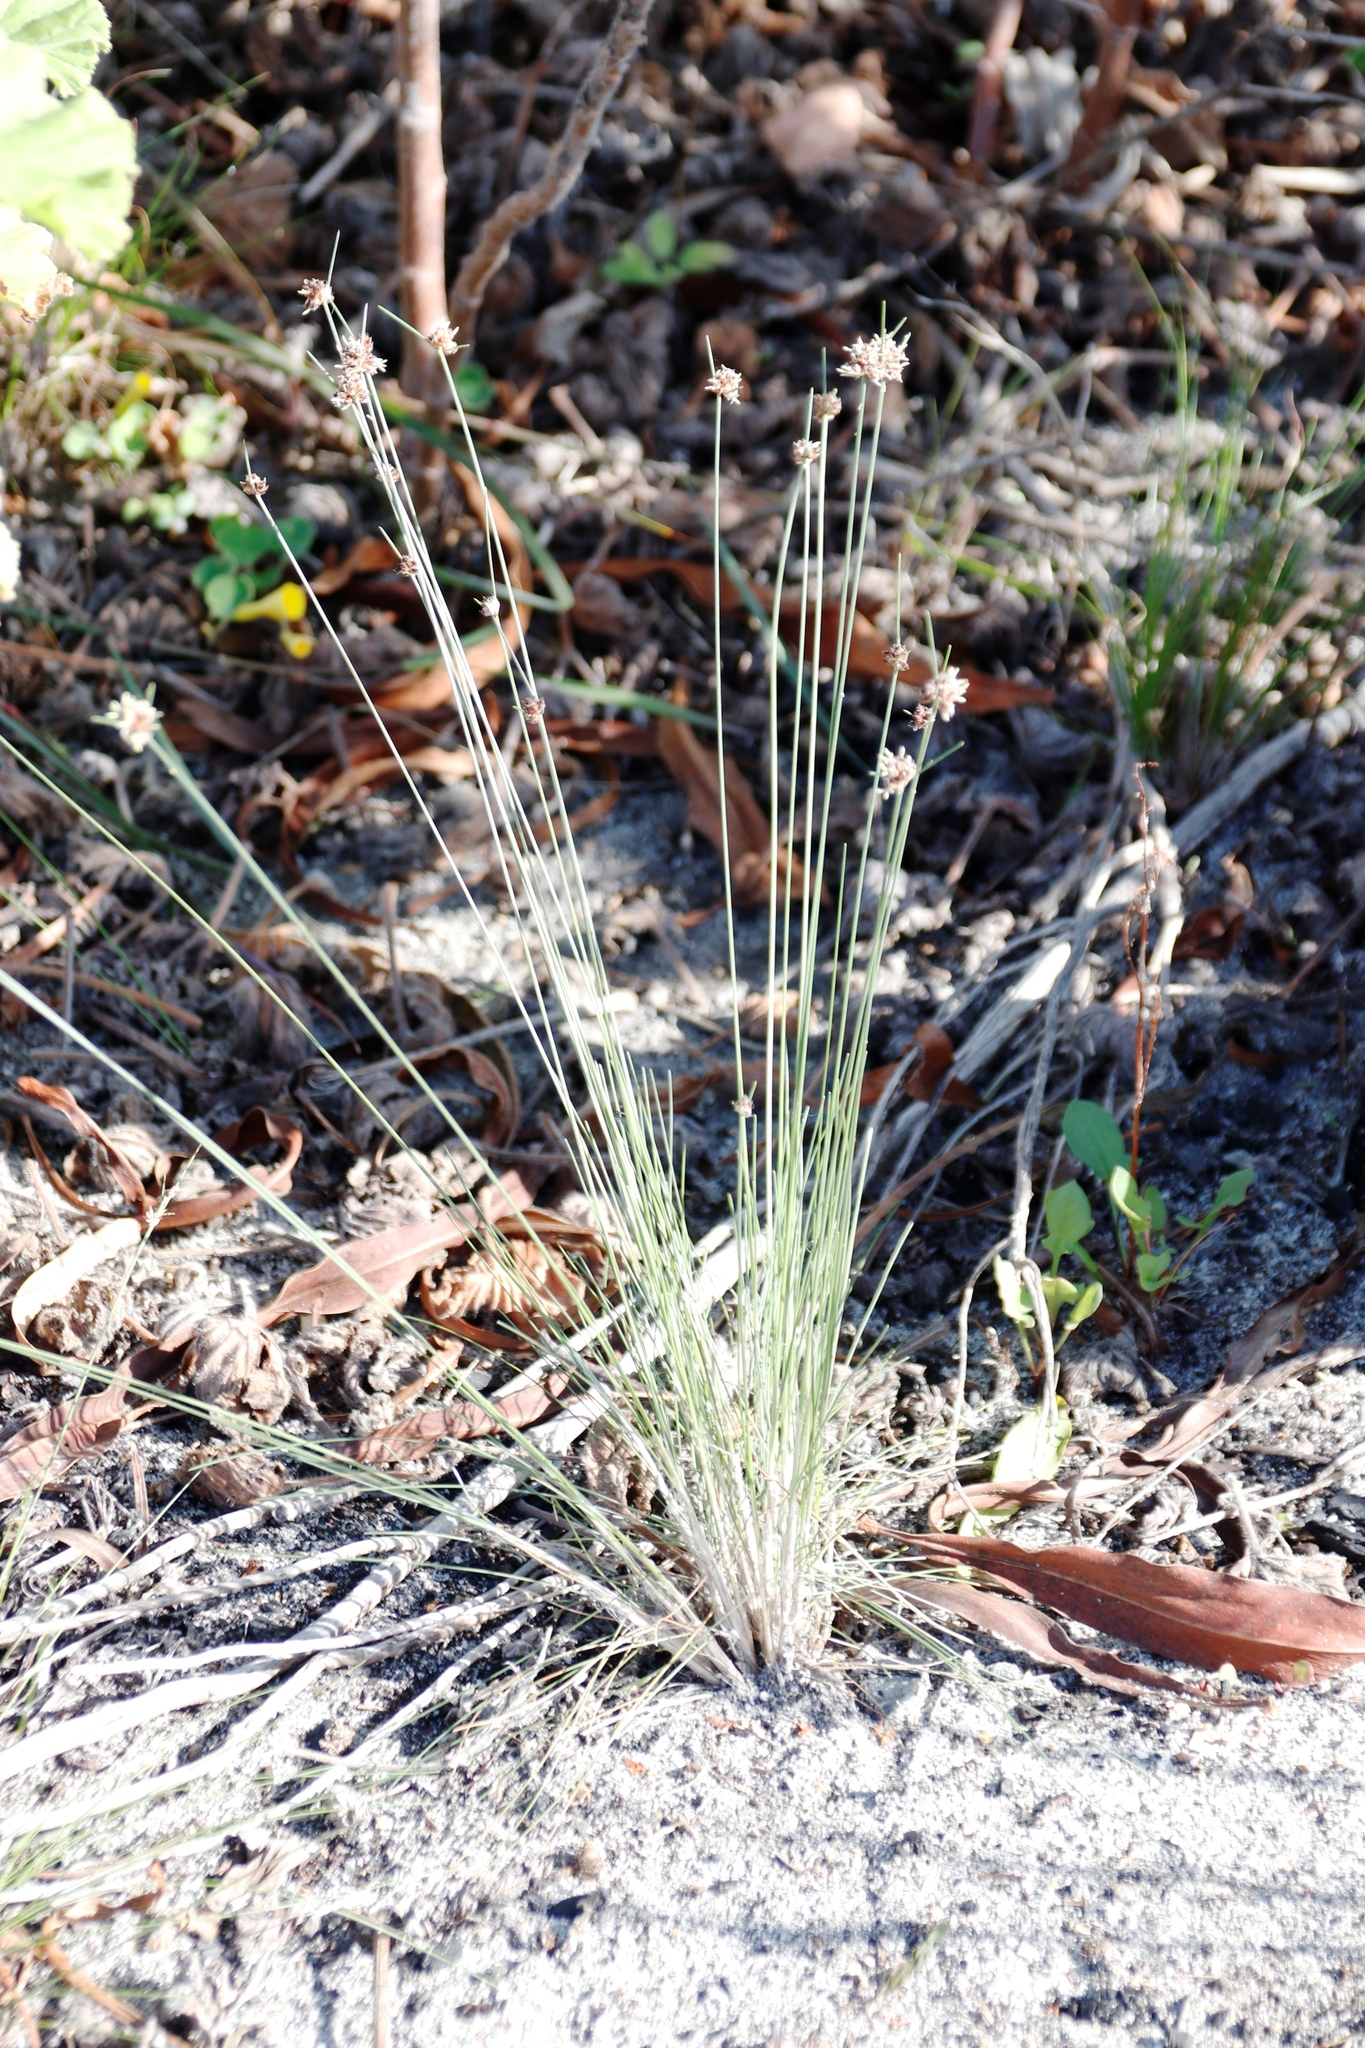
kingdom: Plantae
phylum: Tracheophyta
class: Liliopsida
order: Poales
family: Cyperaceae
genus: Ficinia
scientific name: Ficinia paradoxa
